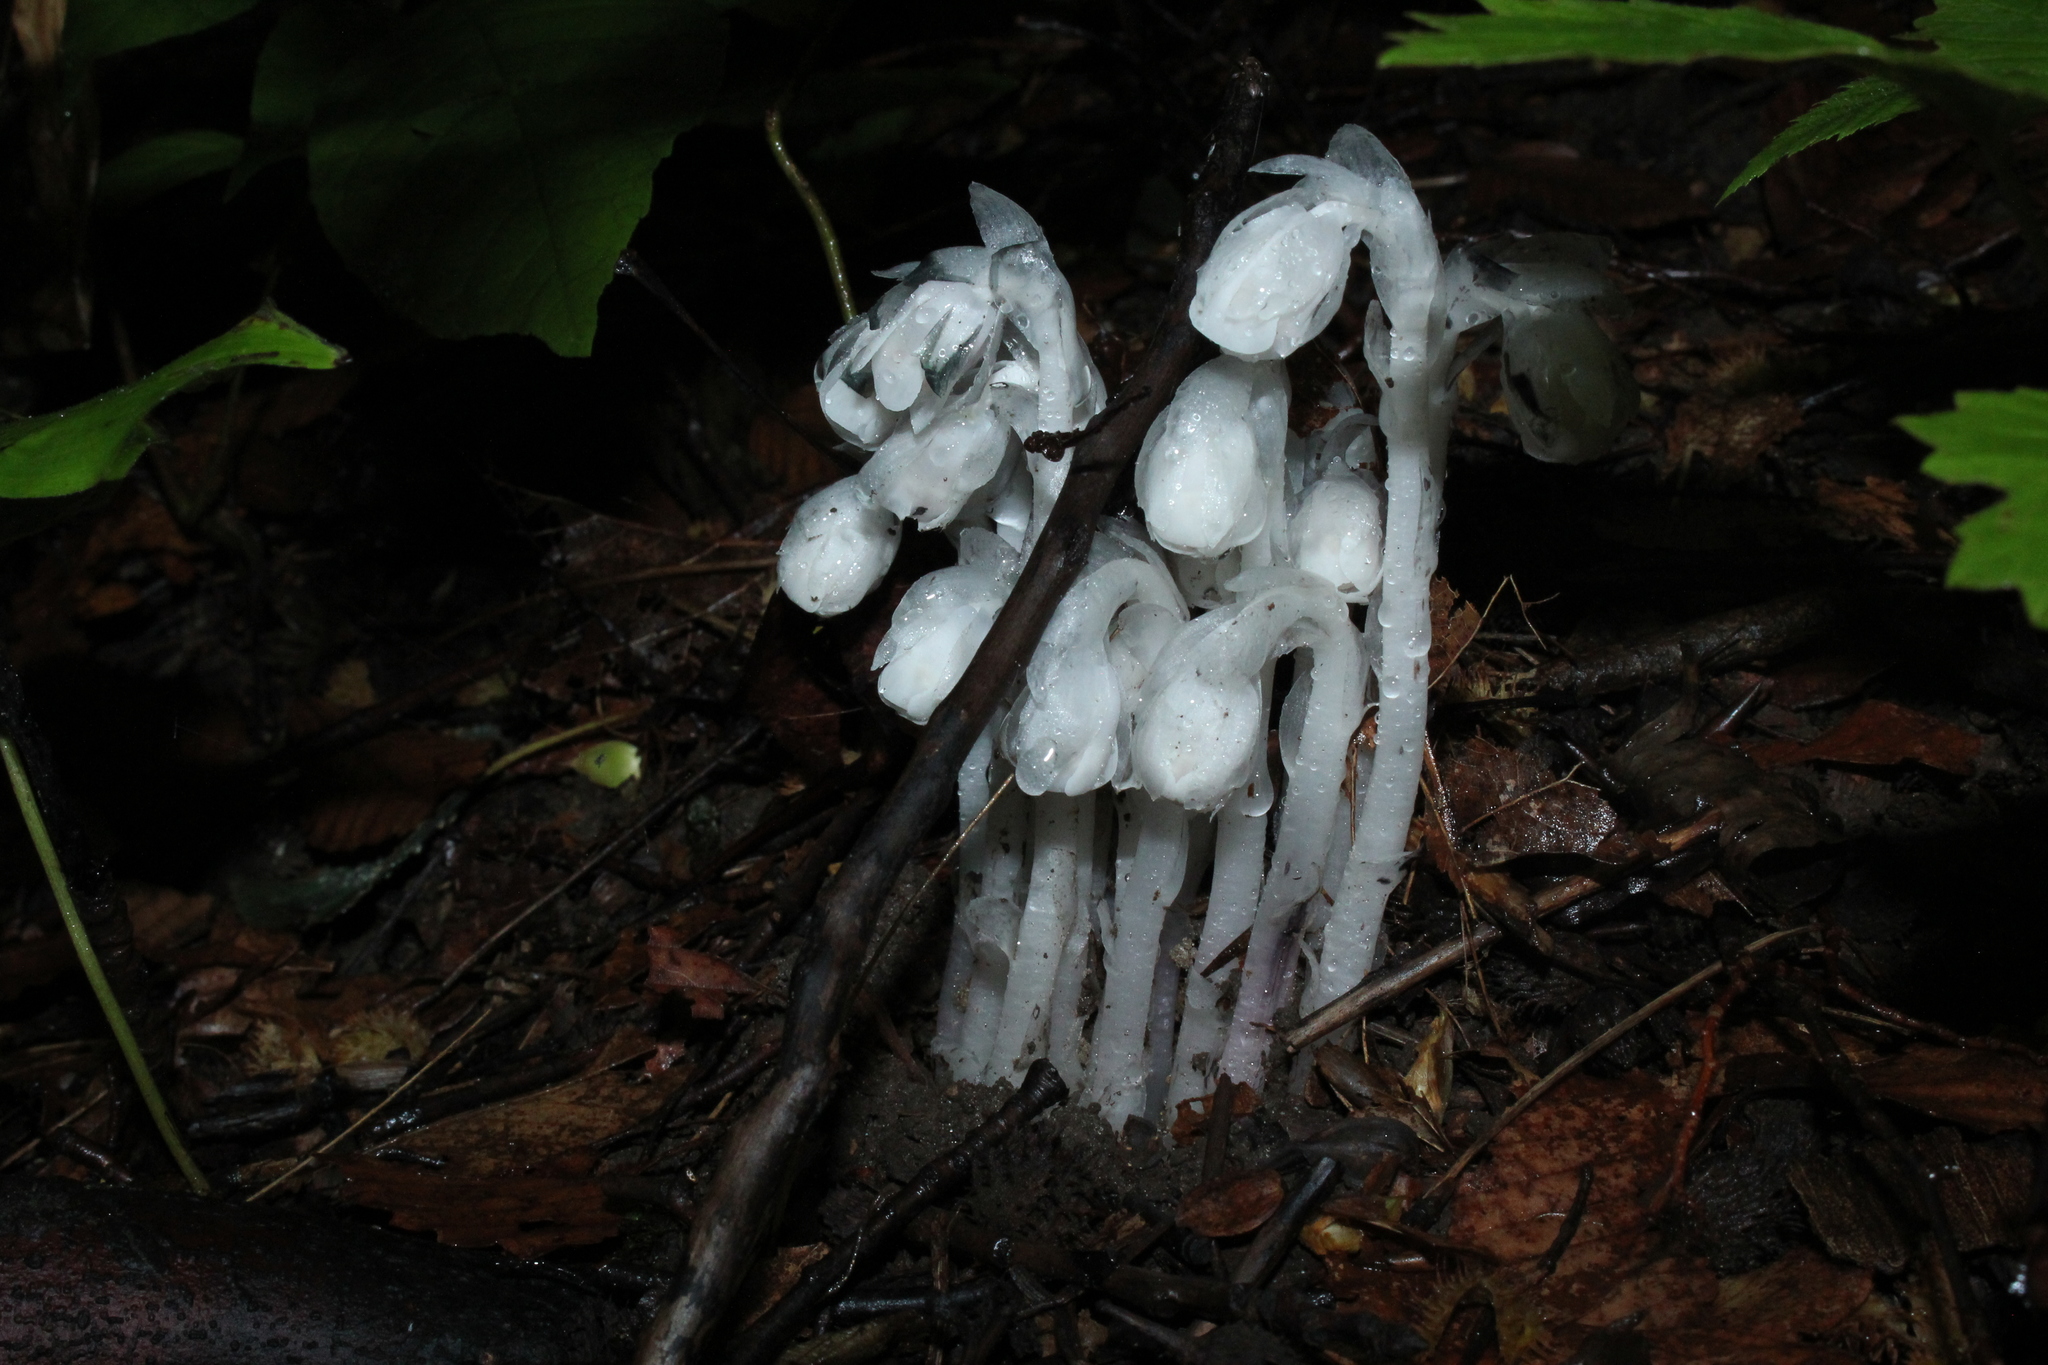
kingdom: Plantae
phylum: Tracheophyta
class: Magnoliopsida
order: Ericales
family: Ericaceae
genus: Monotropa
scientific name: Monotropa uniflora
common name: Convulsion root
